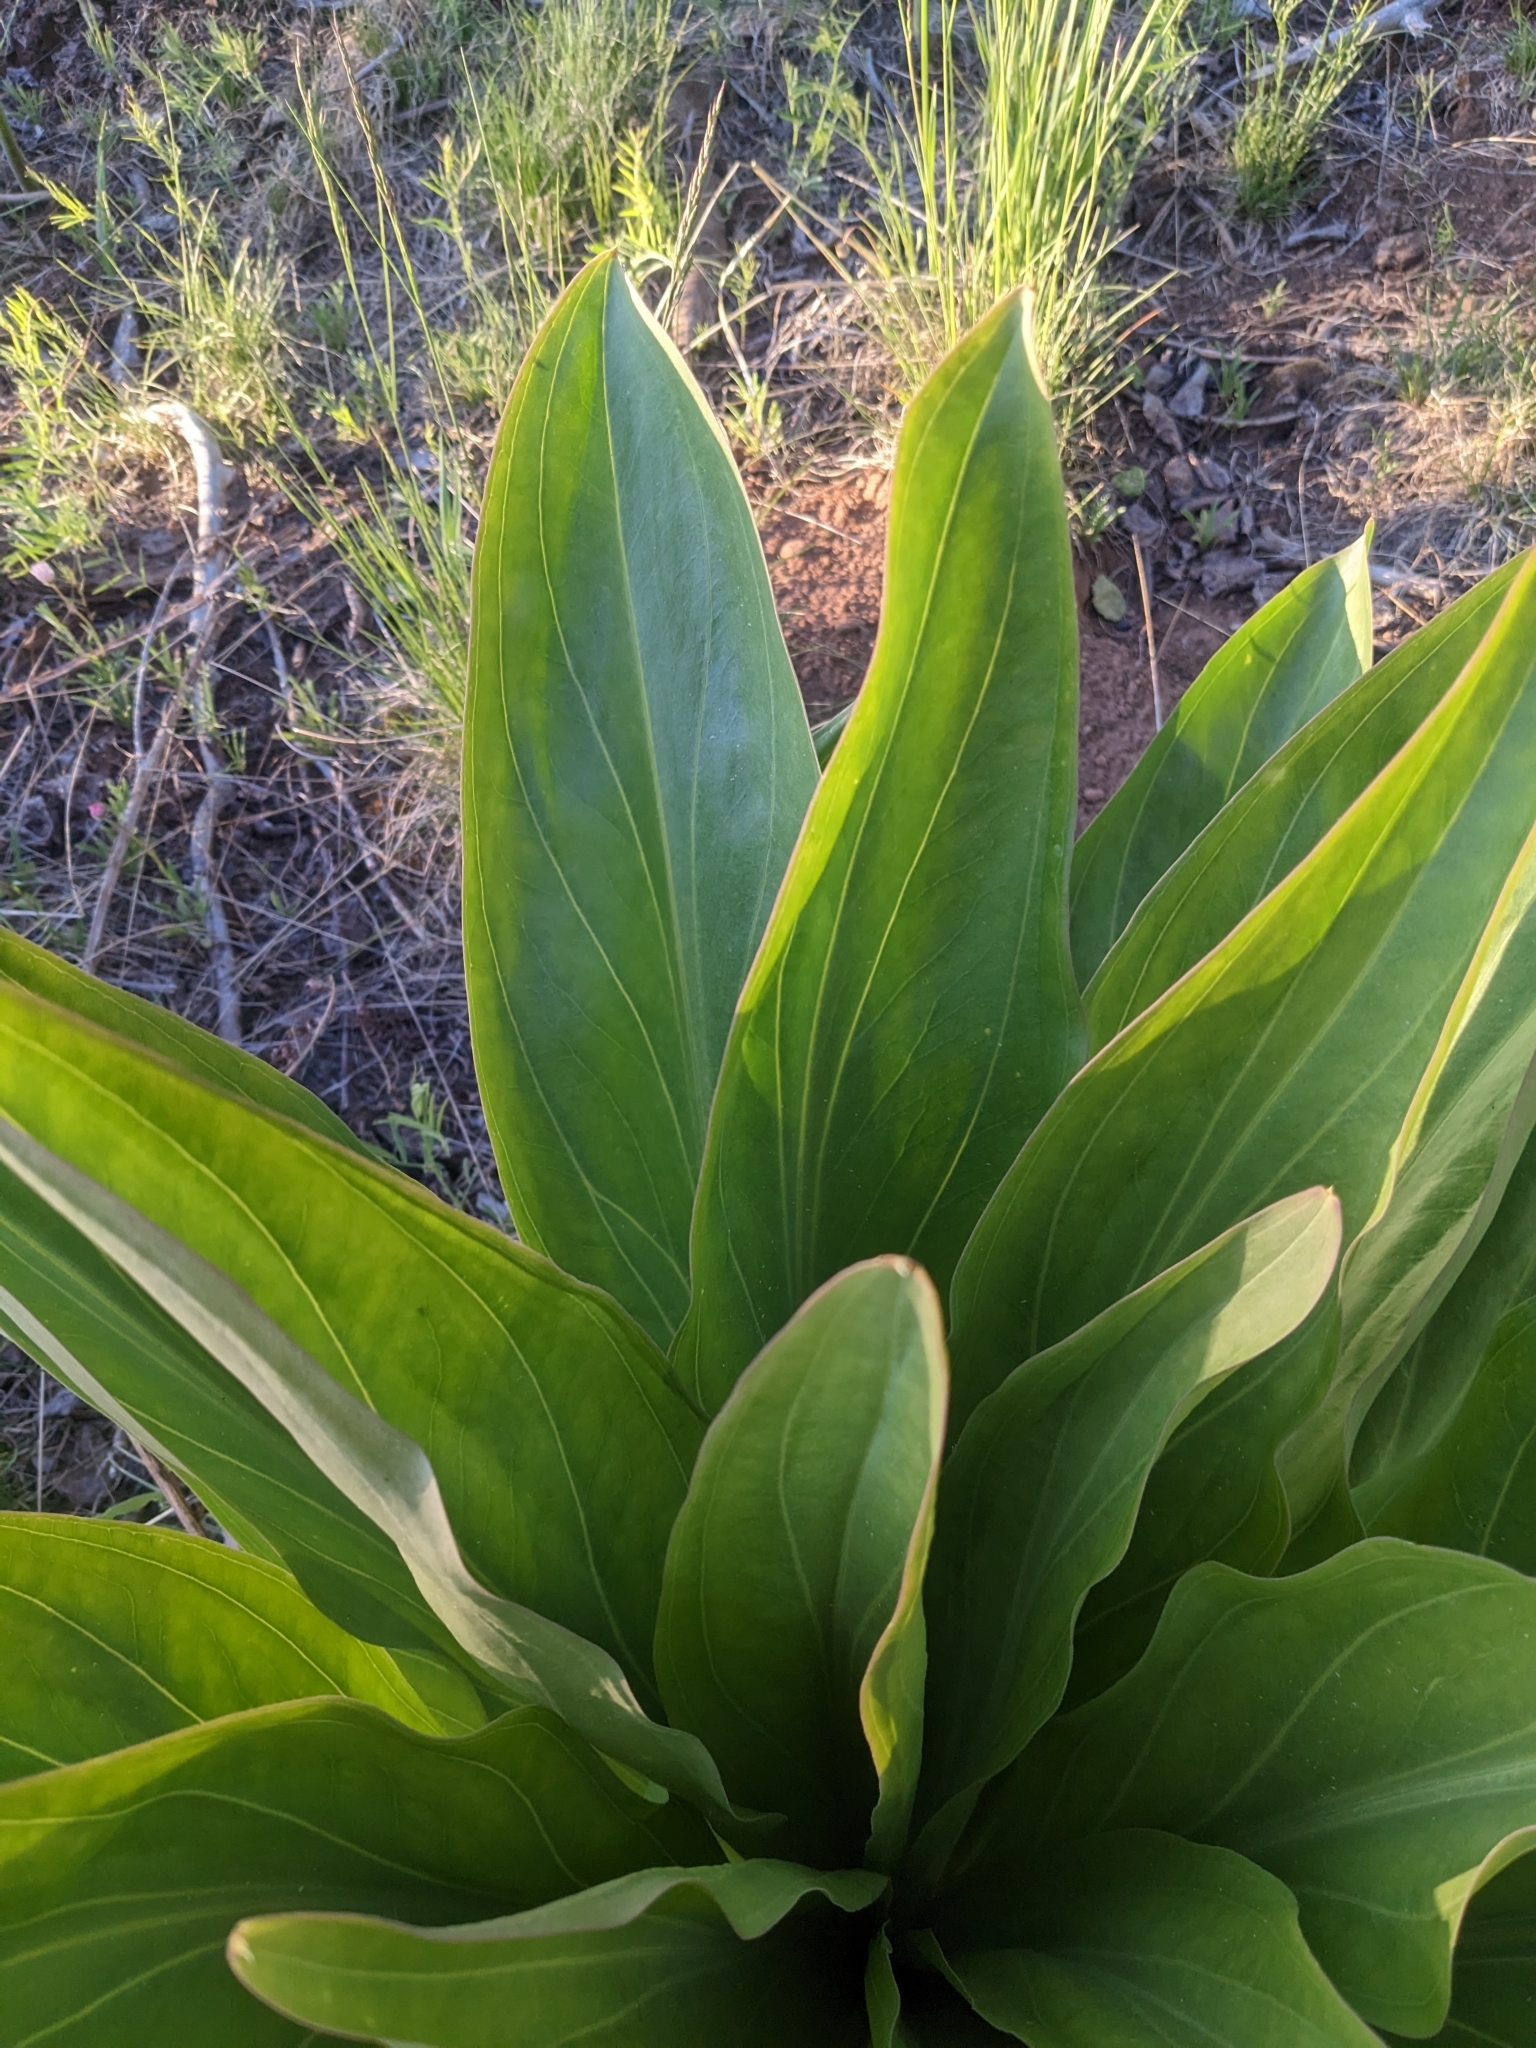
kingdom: Plantae
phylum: Tracheophyta
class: Magnoliopsida
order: Gentianales
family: Gentianaceae
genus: Frasera
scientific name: Frasera speciosa
